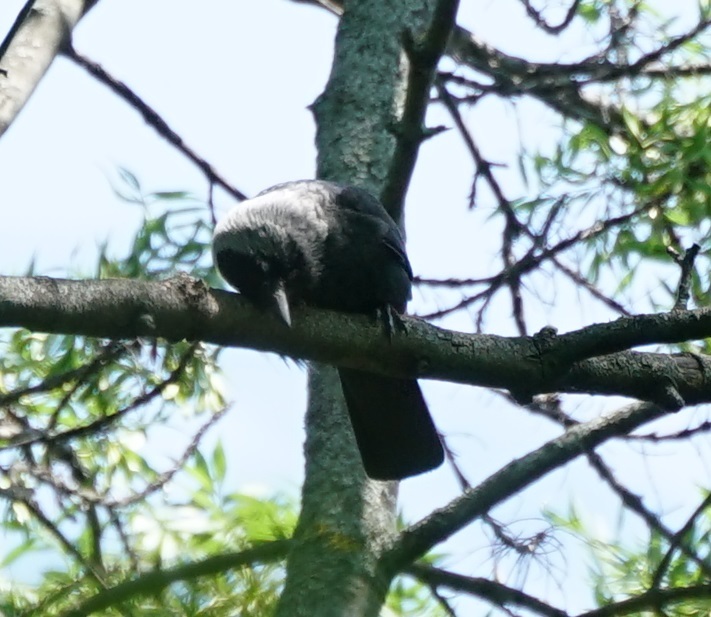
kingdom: Animalia
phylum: Chordata
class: Aves
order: Passeriformes
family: Corvidae
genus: Coloeus
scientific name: Coloeus monedula
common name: Western jackdaw
